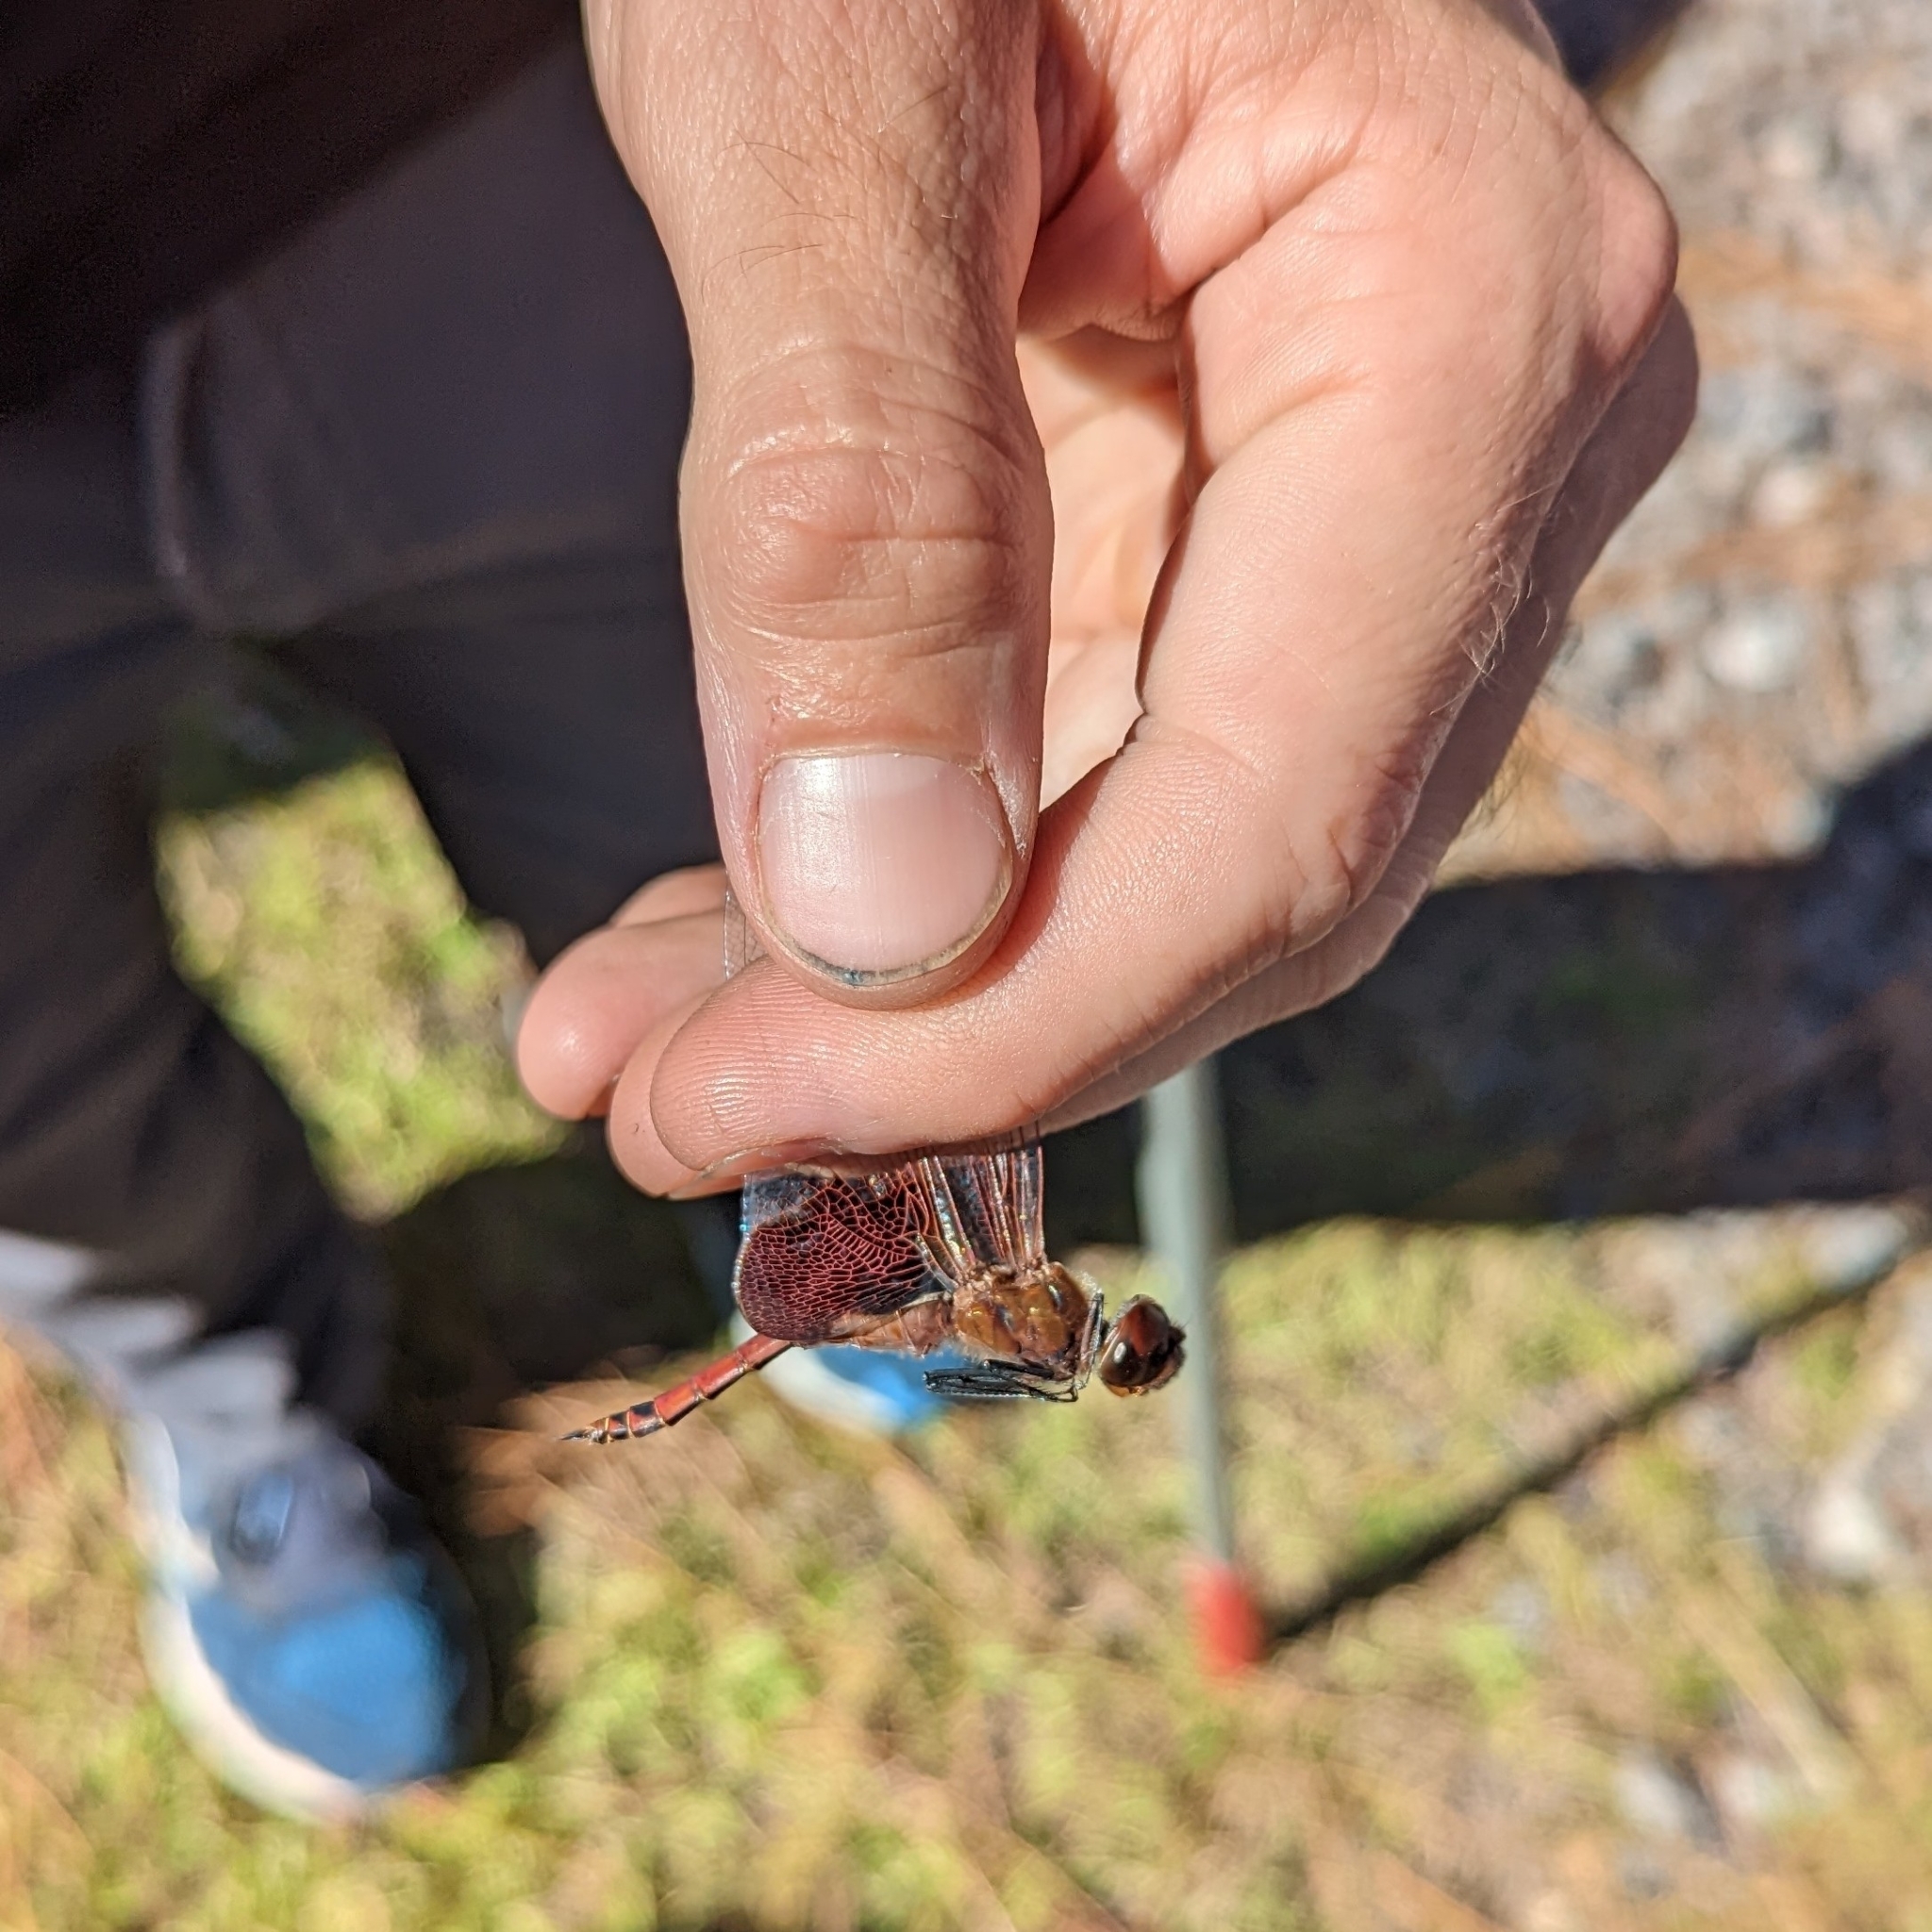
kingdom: Animalia
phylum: Arthropoda
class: Insecta
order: Odonata
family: Libellulidae
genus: Tramea
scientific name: Tramea carolina
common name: Carolina saddlebags
